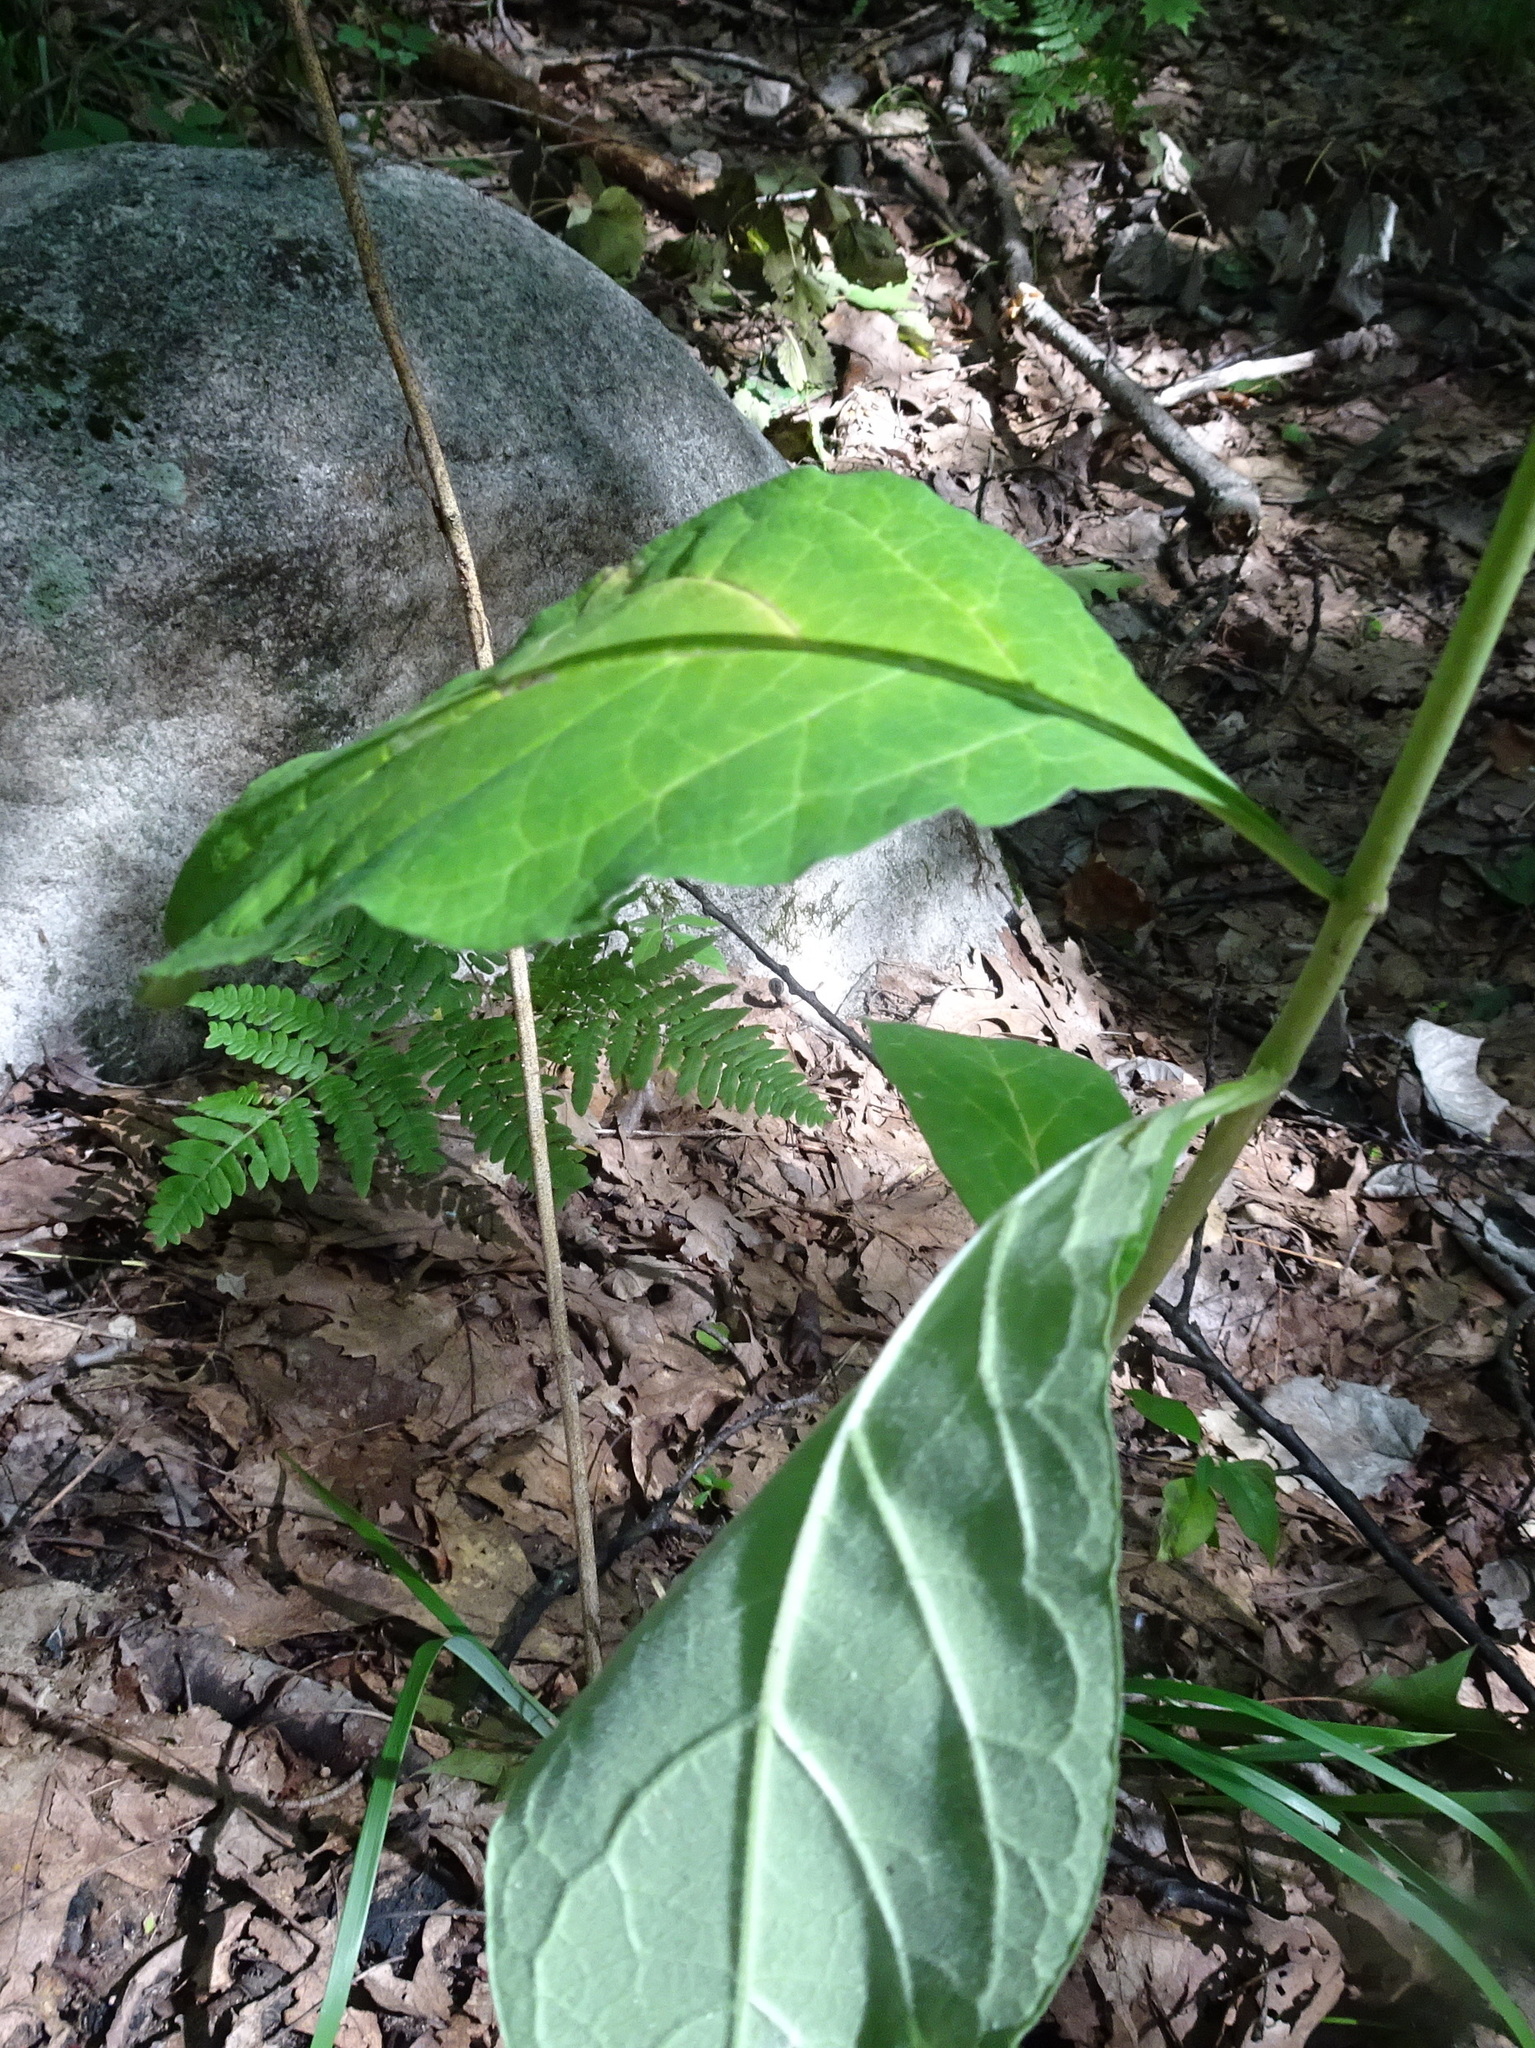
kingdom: Plantae
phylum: Tracheophyta
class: Magnoliopsida
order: Gentianales
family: Apocynaceae
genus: Asclepias
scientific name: Asclepias exaltata
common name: Poke milkweed
